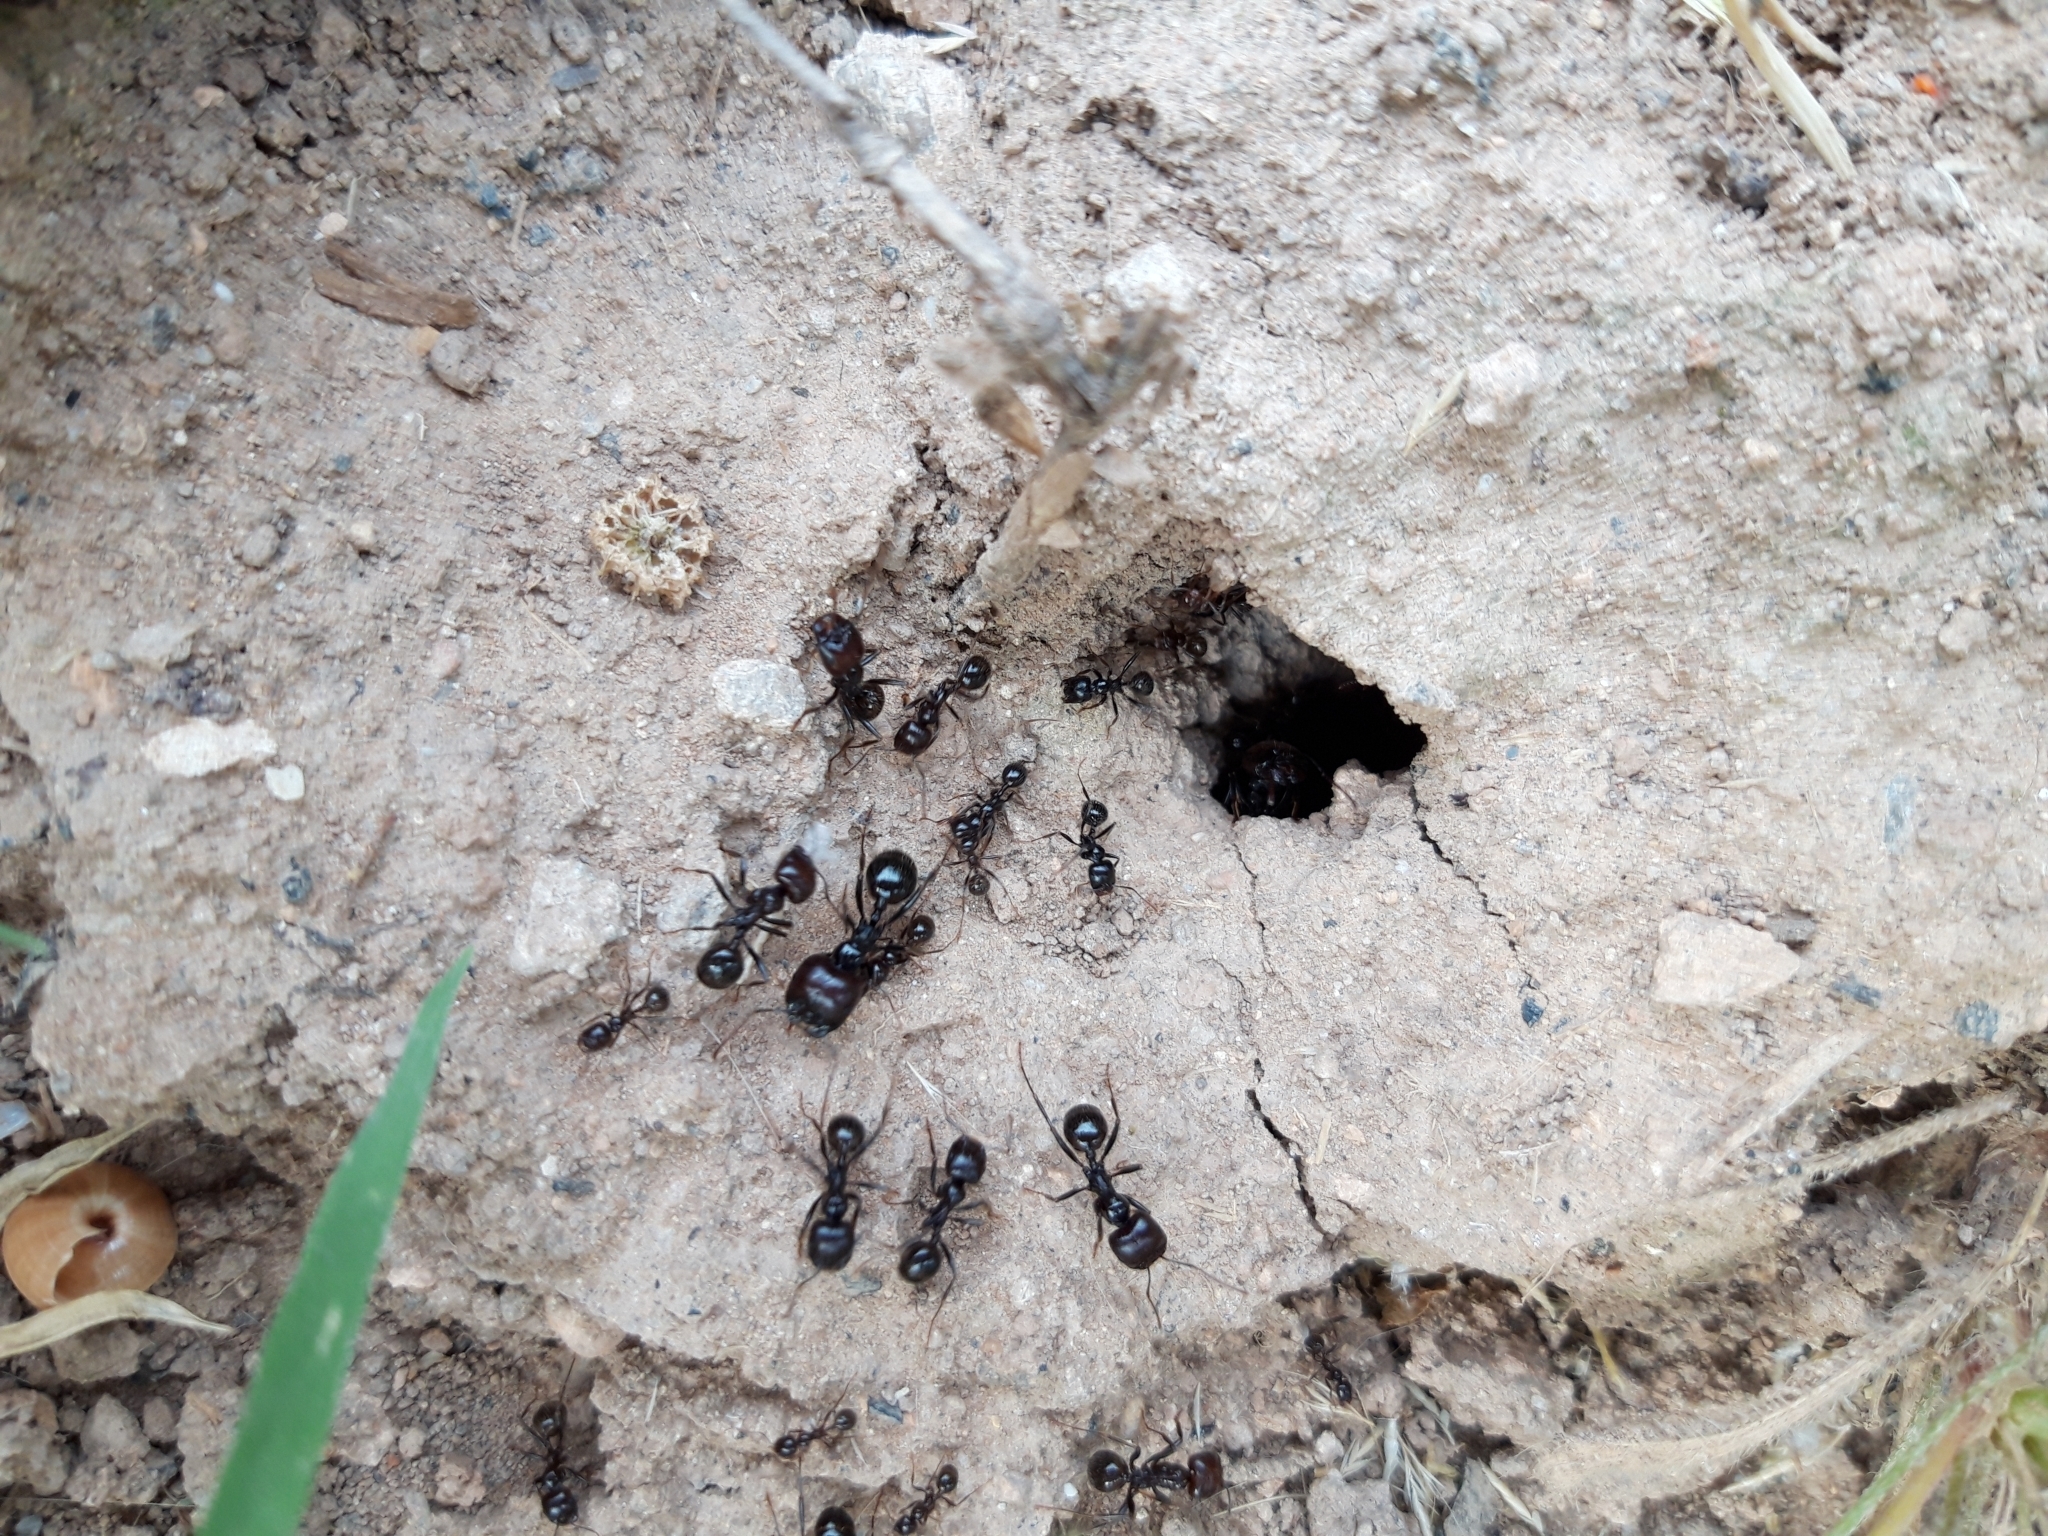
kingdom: Animalia
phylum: Arthropoda
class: Insecta
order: Hymenoptera
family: Formicidae
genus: Messor
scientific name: Messor barbarus
